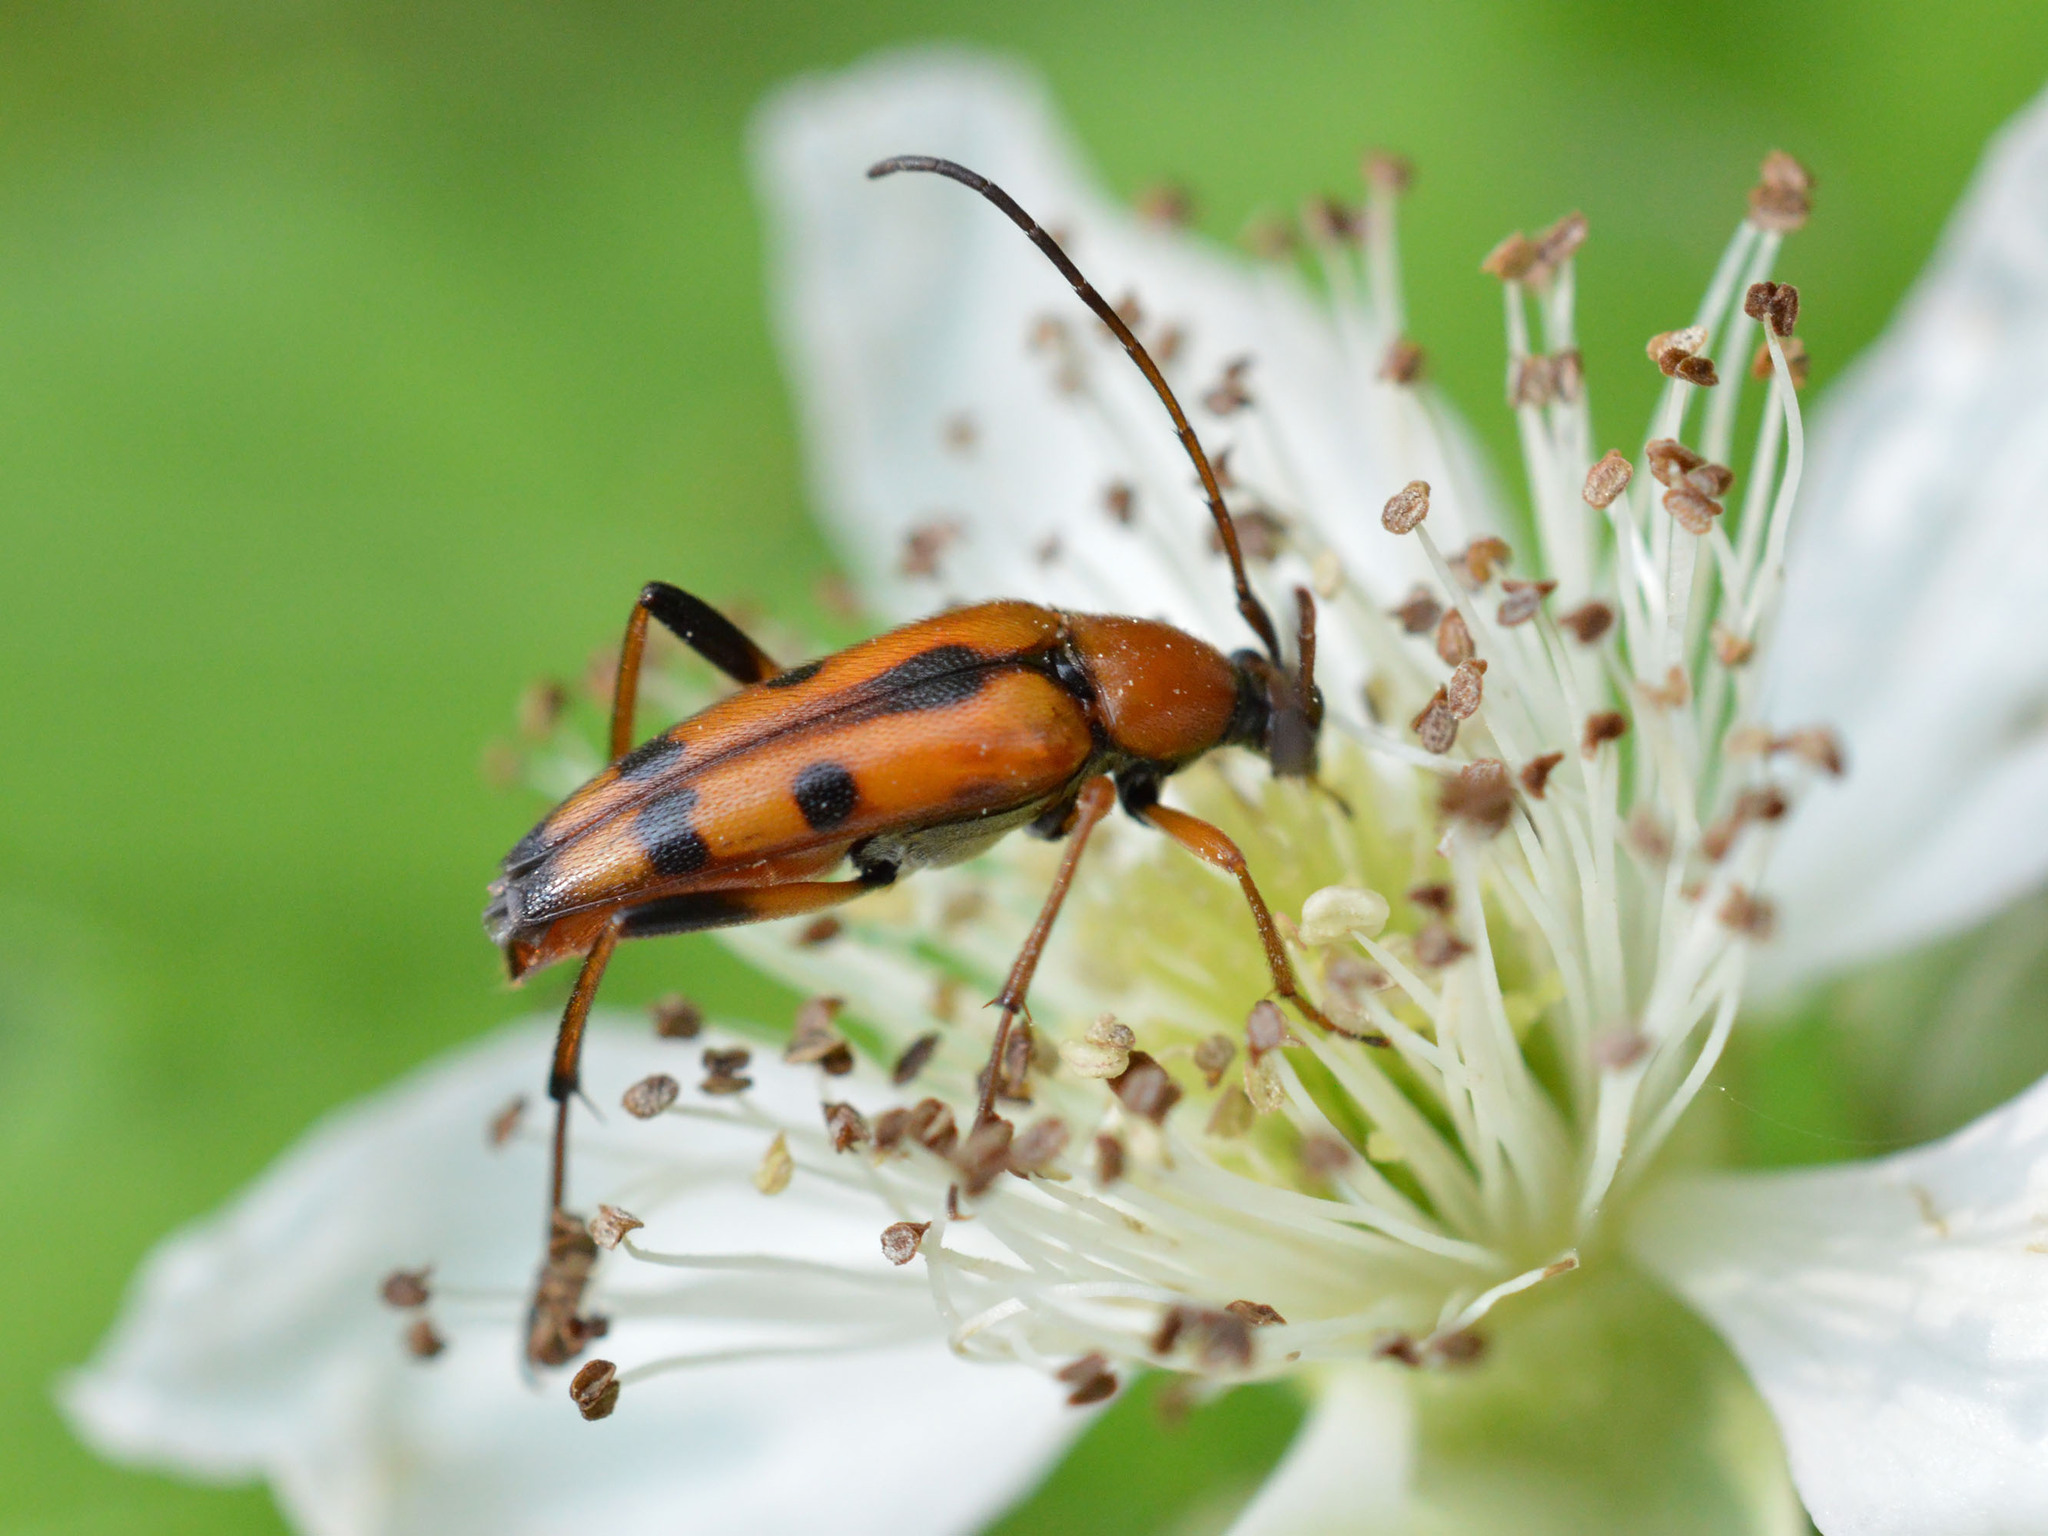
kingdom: Animalia
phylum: Arthropoda
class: Insecta
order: Coleoptera
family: Cerambycidae
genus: Stenurella
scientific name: Stenurella septempunctata
